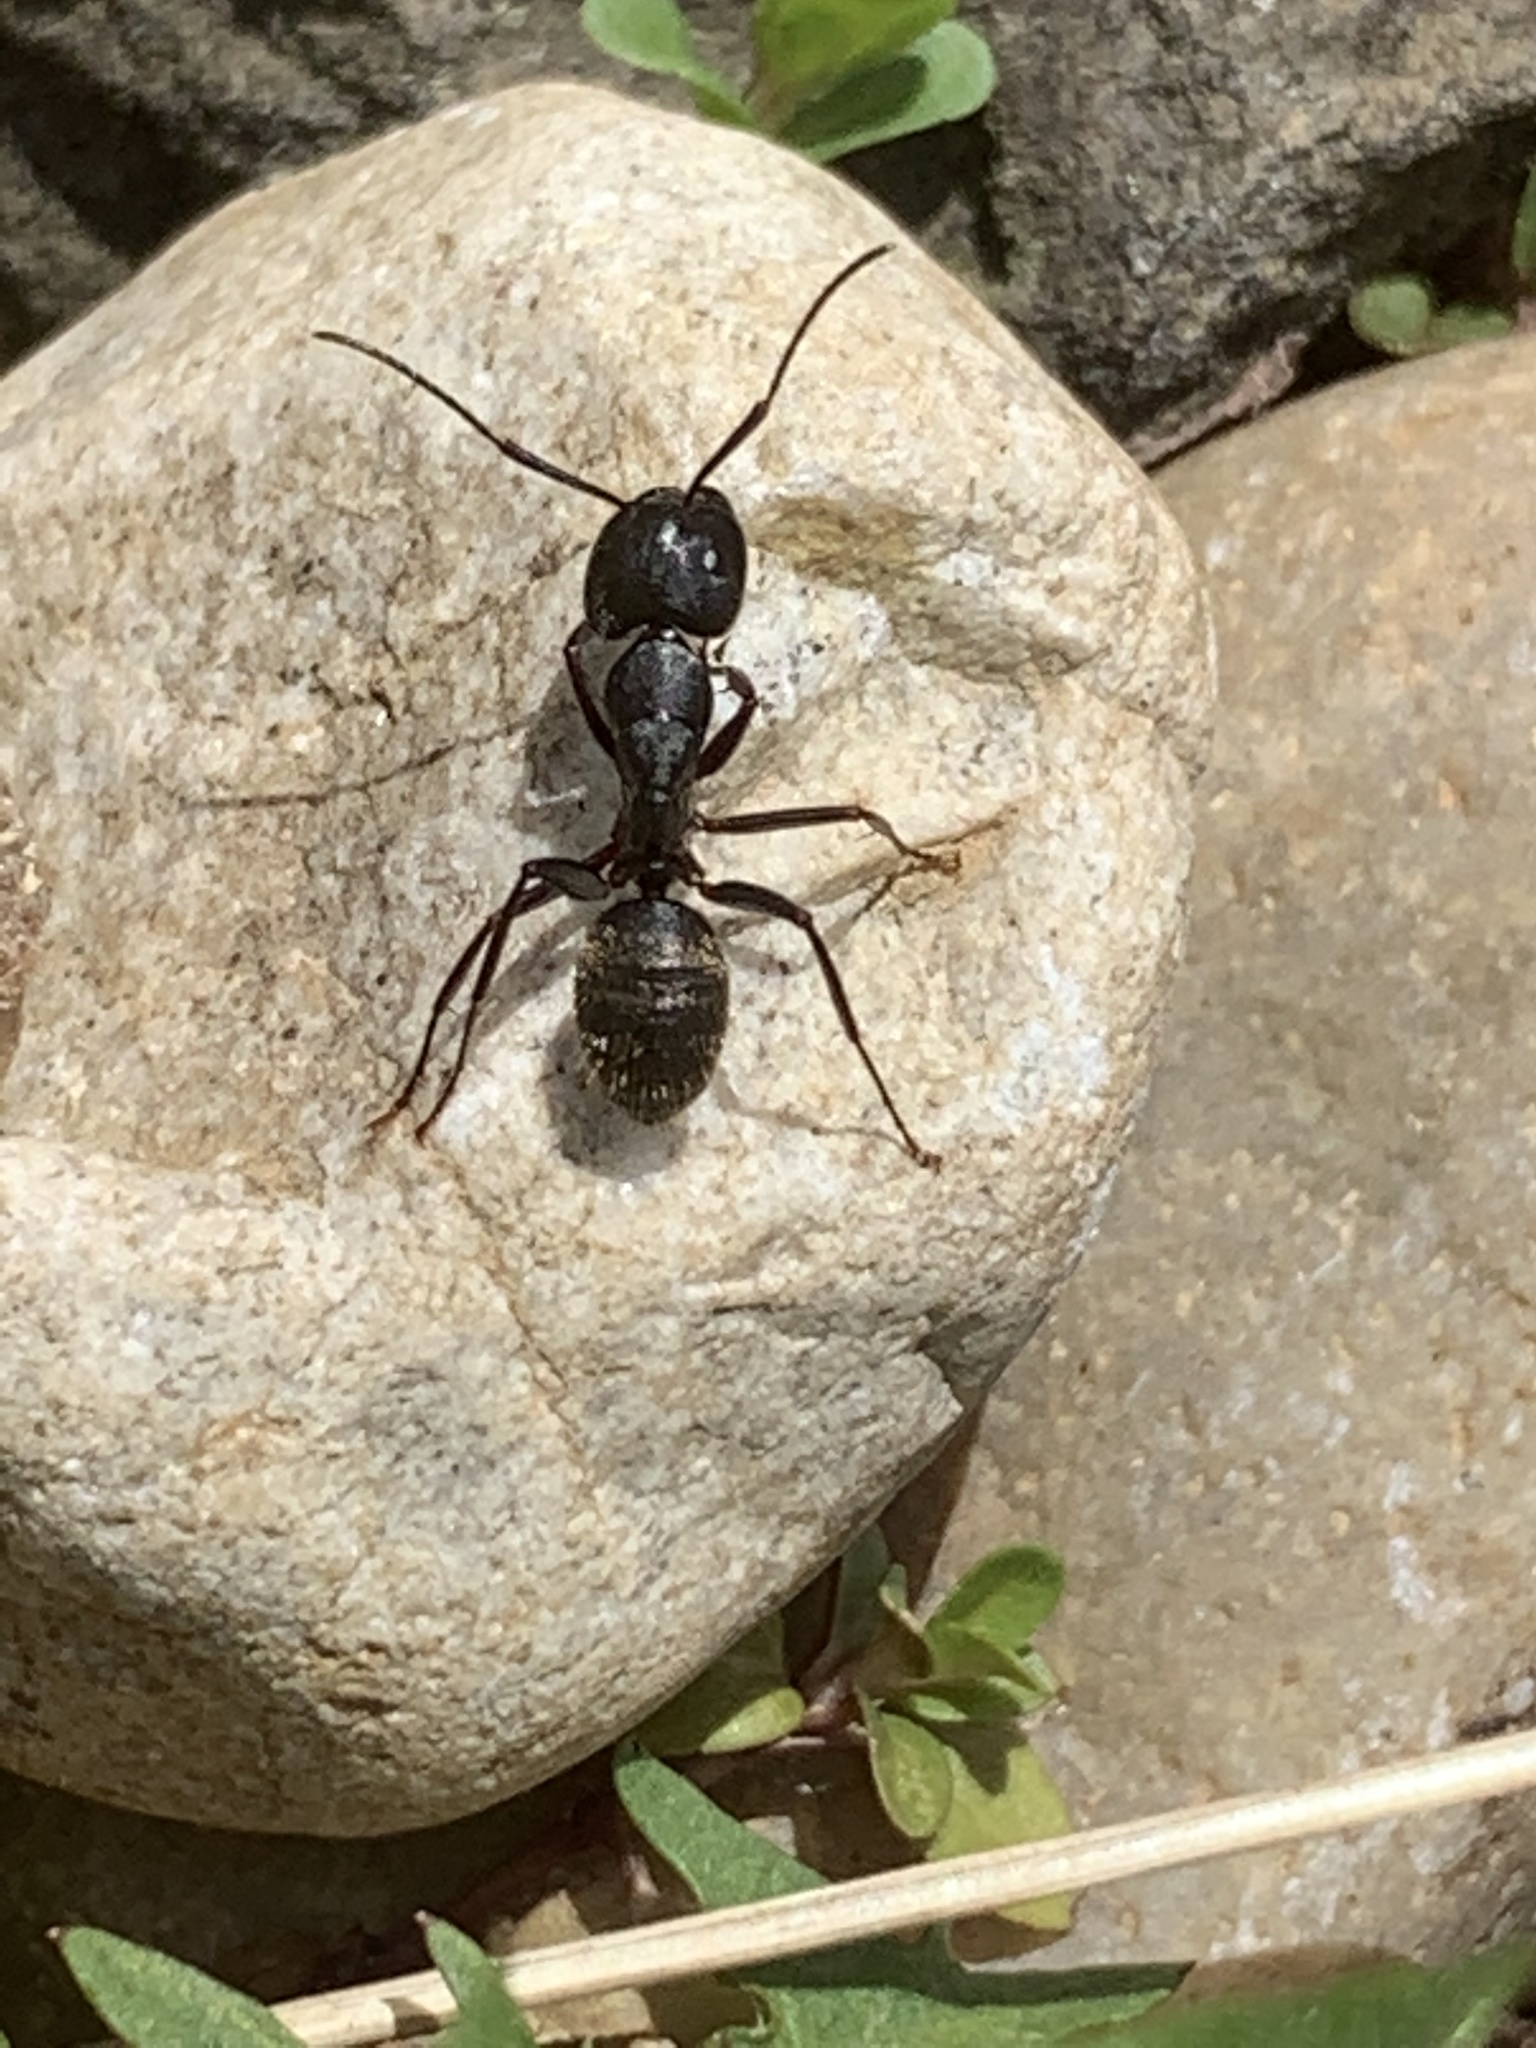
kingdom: Animalia
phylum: Arthropoda
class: Insecta
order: Hymenoptera
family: Formicidae
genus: Camponotus
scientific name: Camponotus pennsylvanicus
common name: Black carpenter ant
